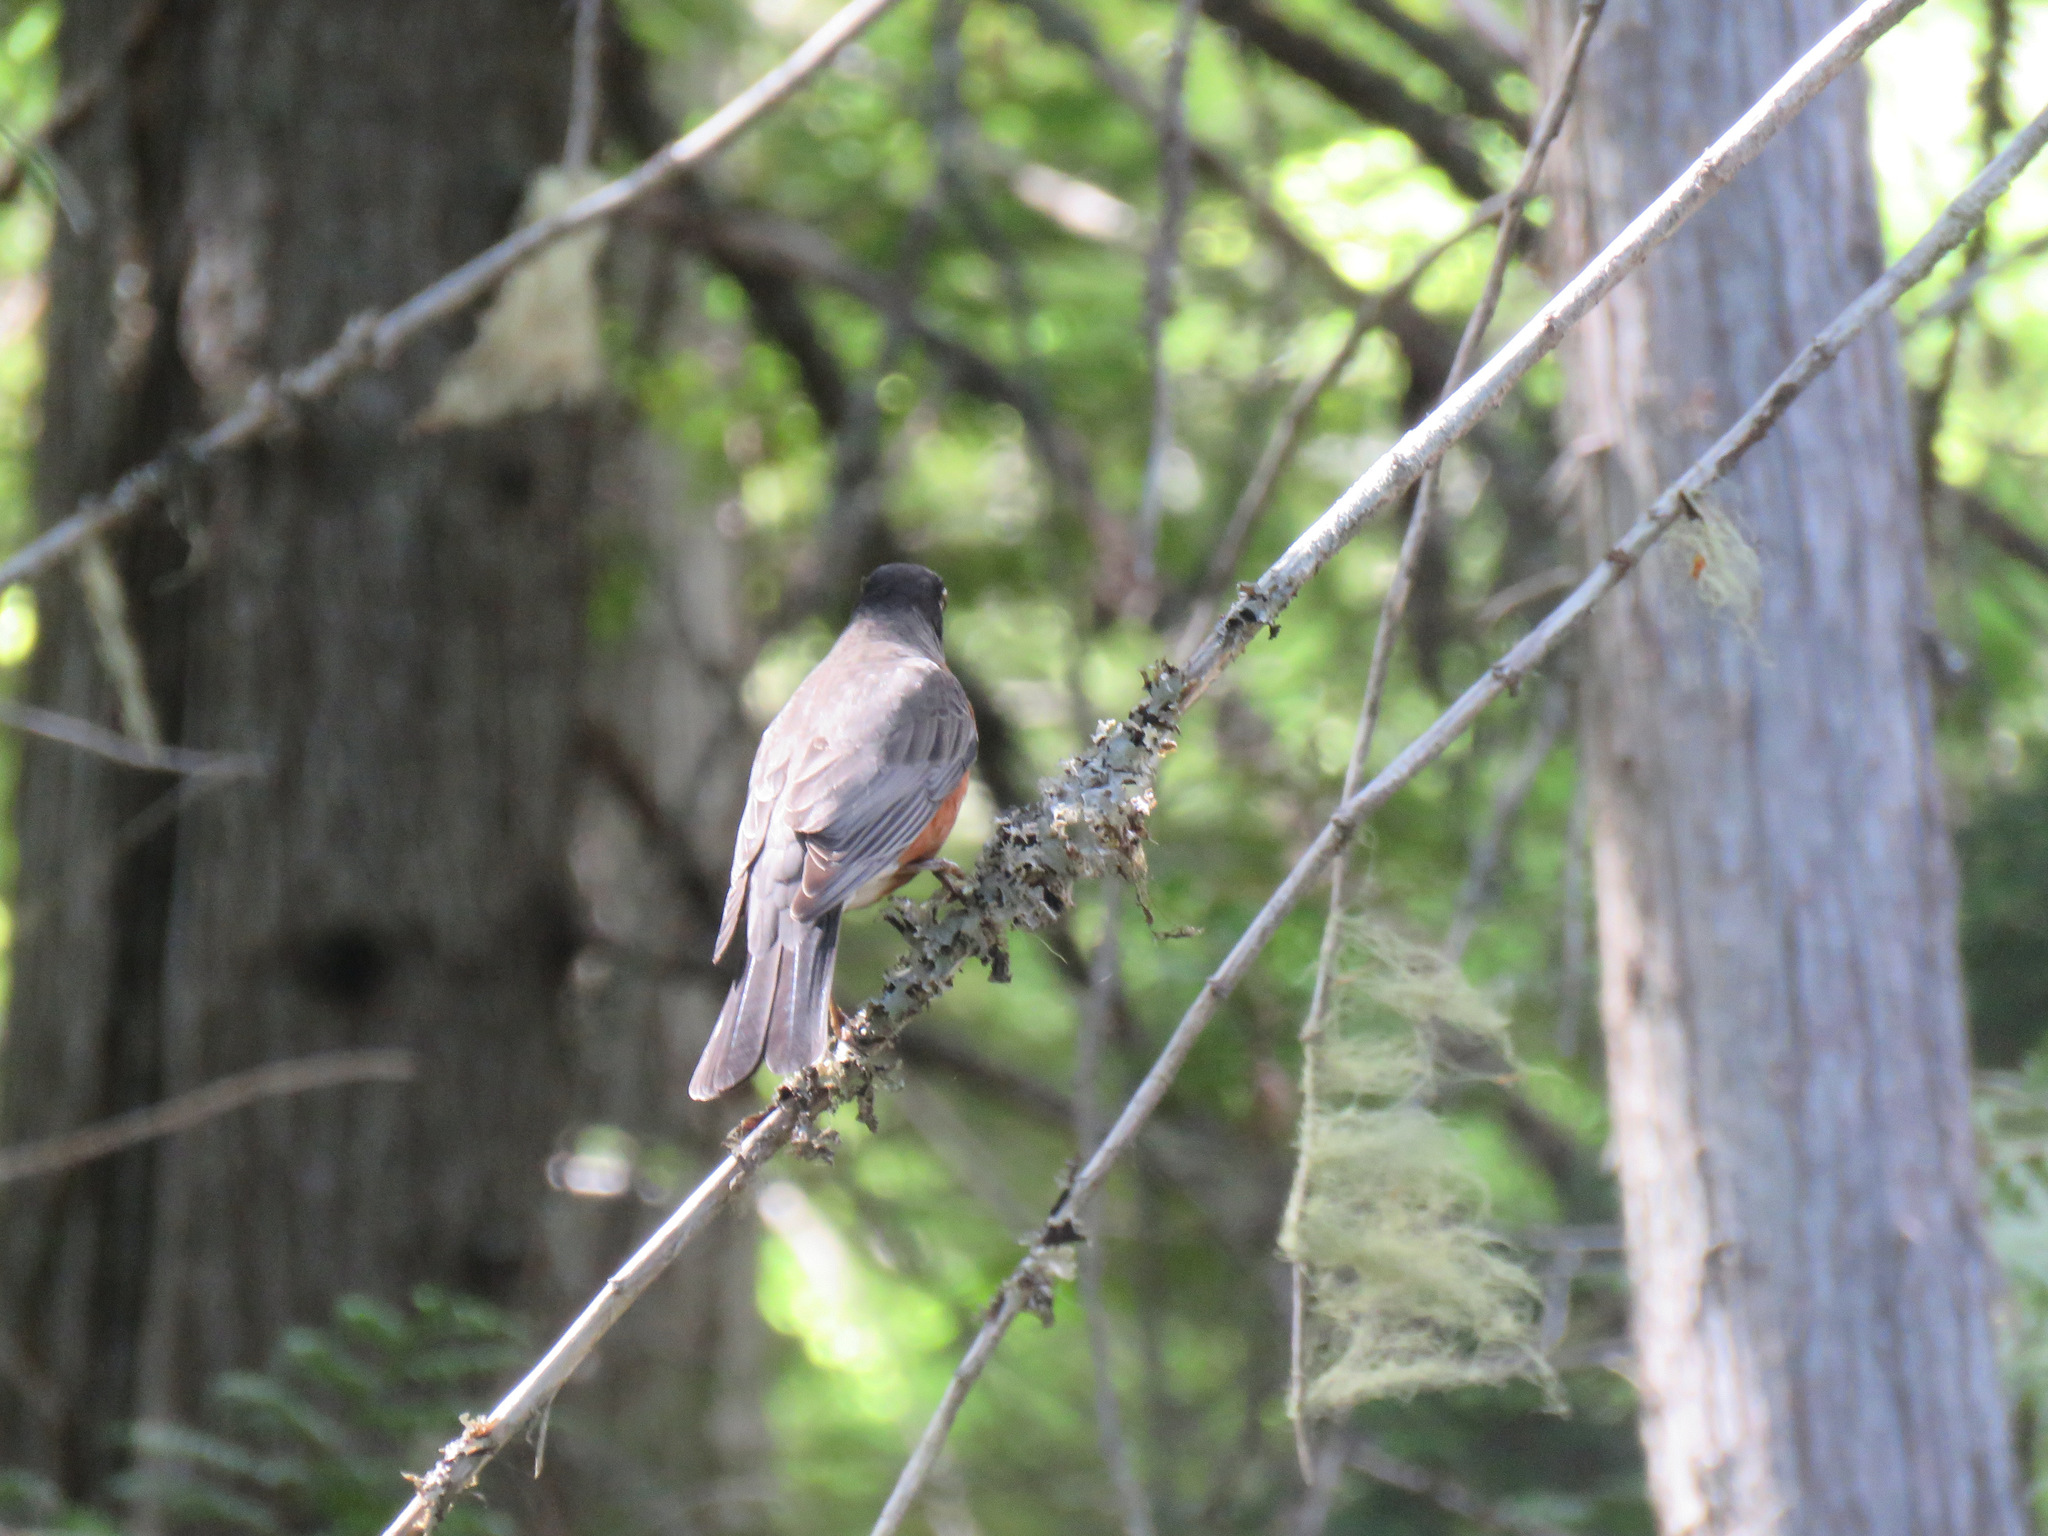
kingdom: Animalia
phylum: Chordata
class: Aves
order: Passeriformes
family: Turdidae
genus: Turdus
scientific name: Turdus migratorius
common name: American robin
